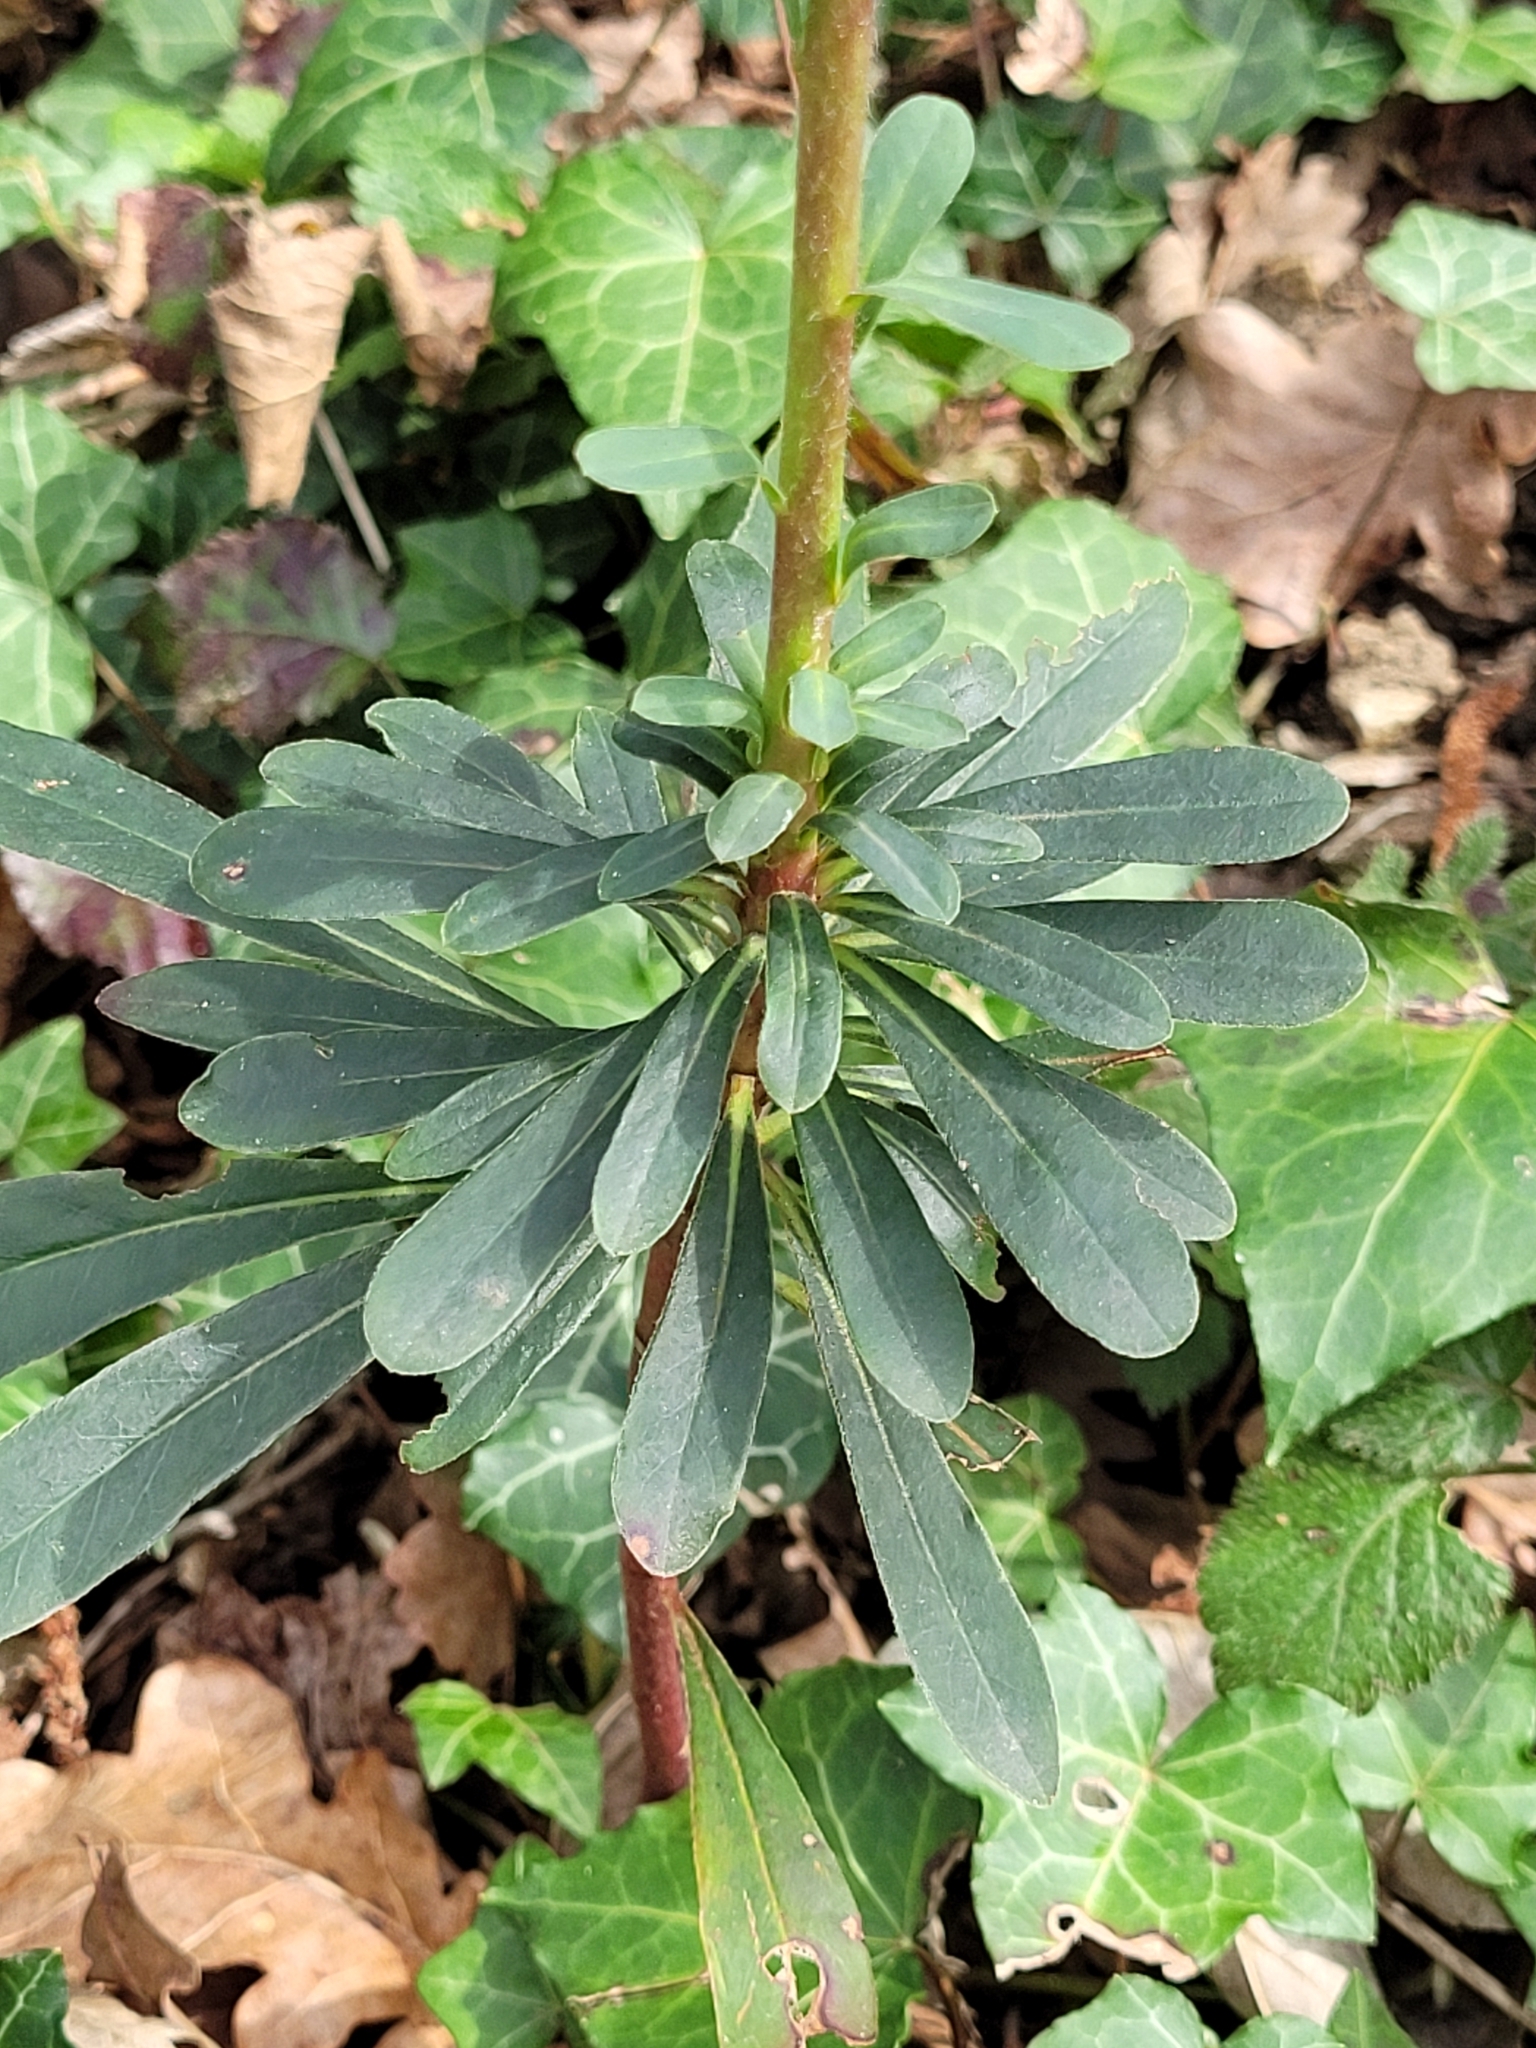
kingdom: Plantae
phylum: Tracheophyta
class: Magnoliopsida
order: Malpighiales
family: Euphorbiaceae
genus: Euphorbia
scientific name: Euphorbia amygdaloides
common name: Wood spurge
